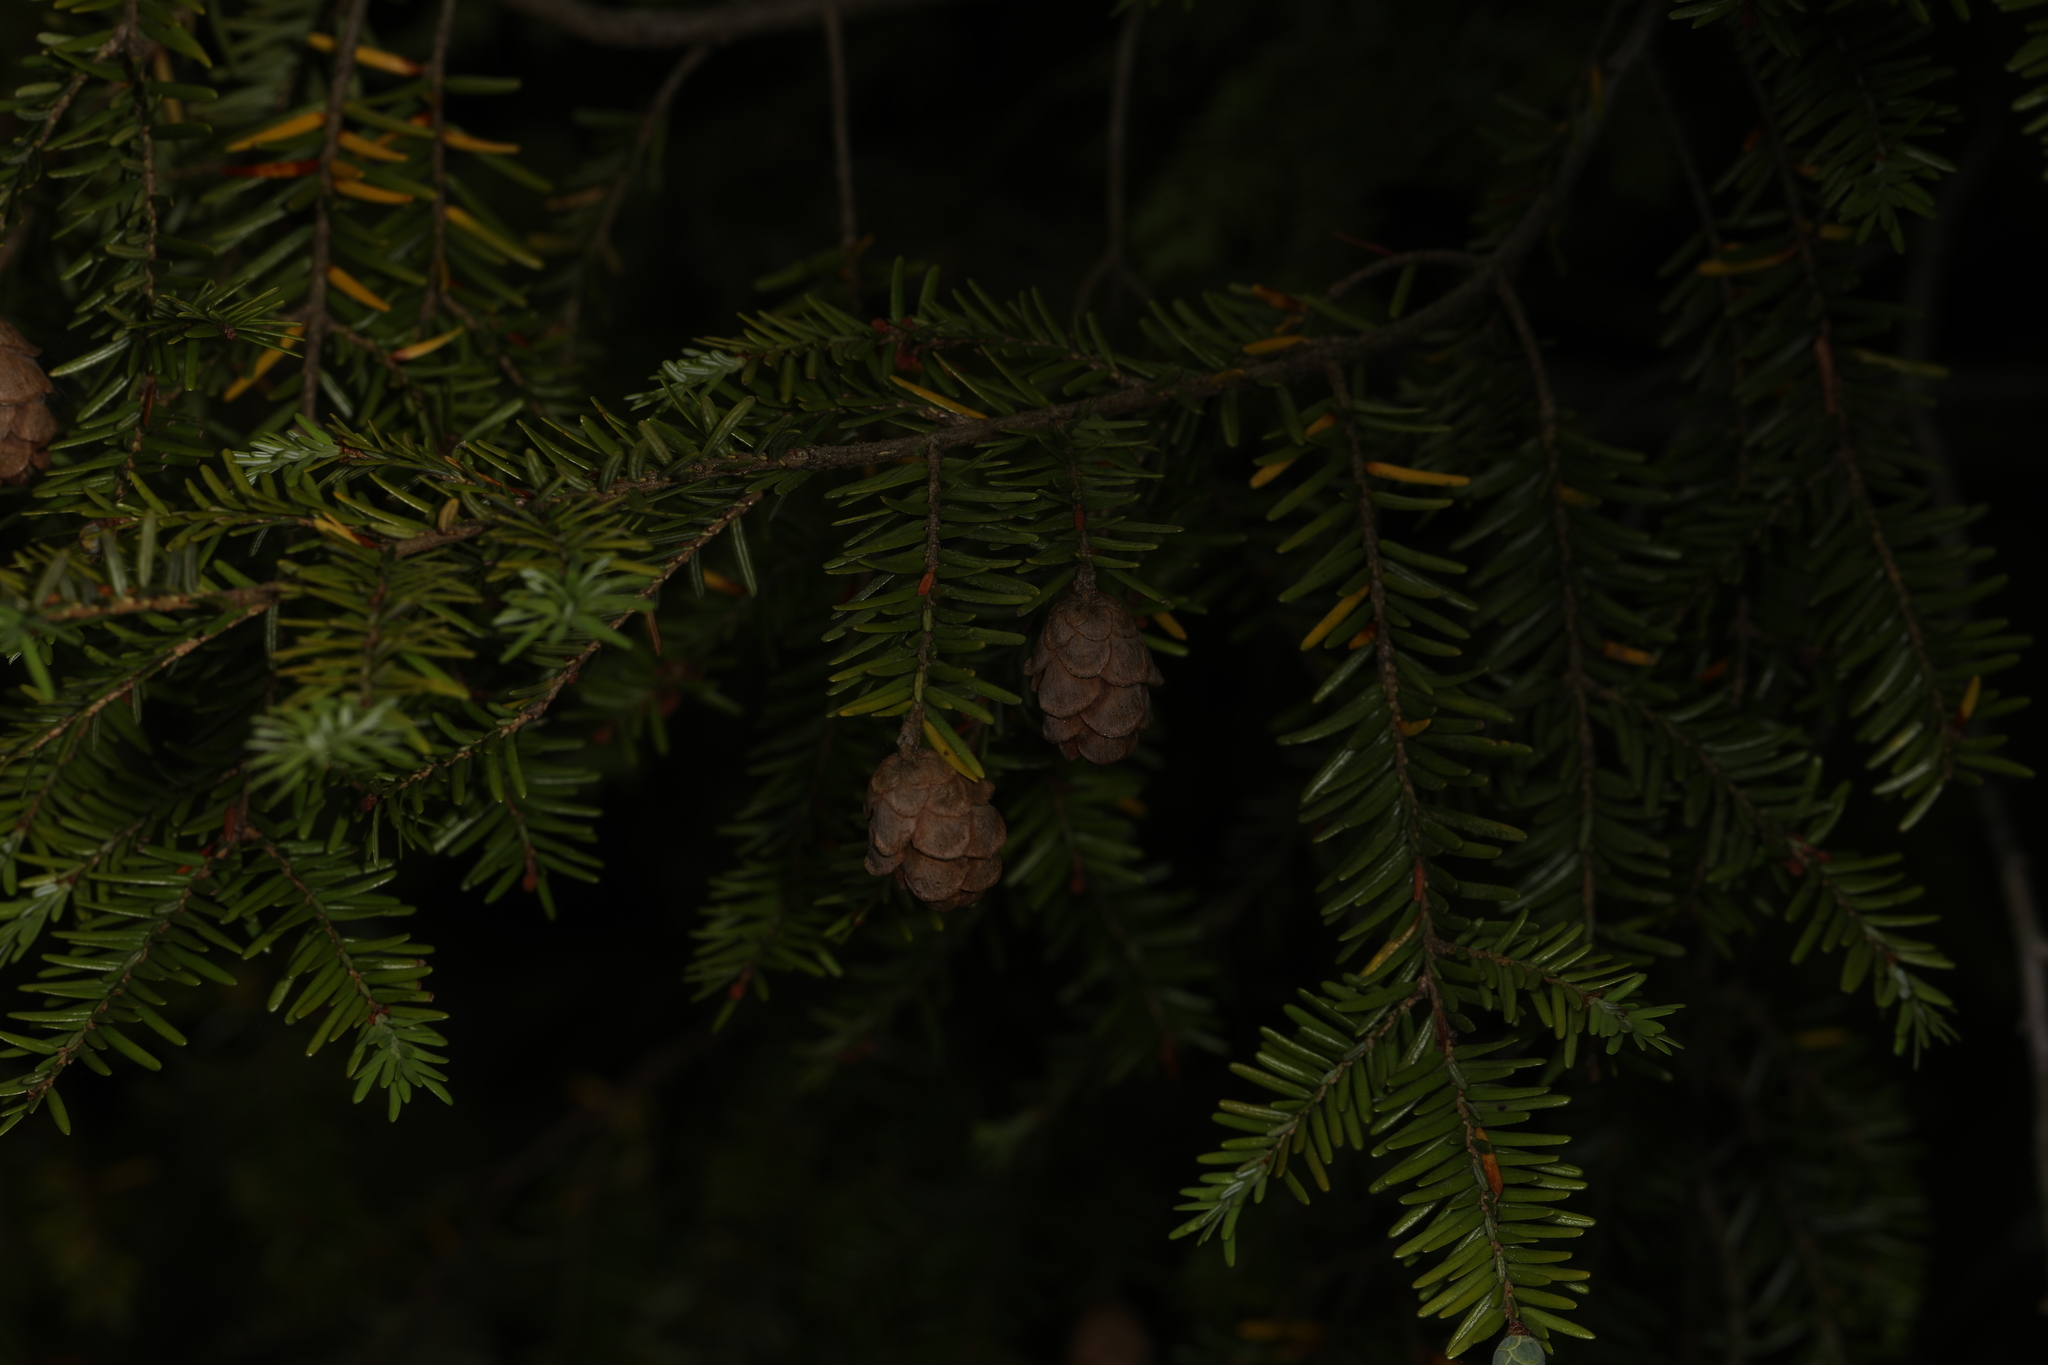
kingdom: Plantae
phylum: Tracheophyta
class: Pinopsida
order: Pinales
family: Pinaceae
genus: Tsuga
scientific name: Tsuga canadensis
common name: Eastern hemlock
